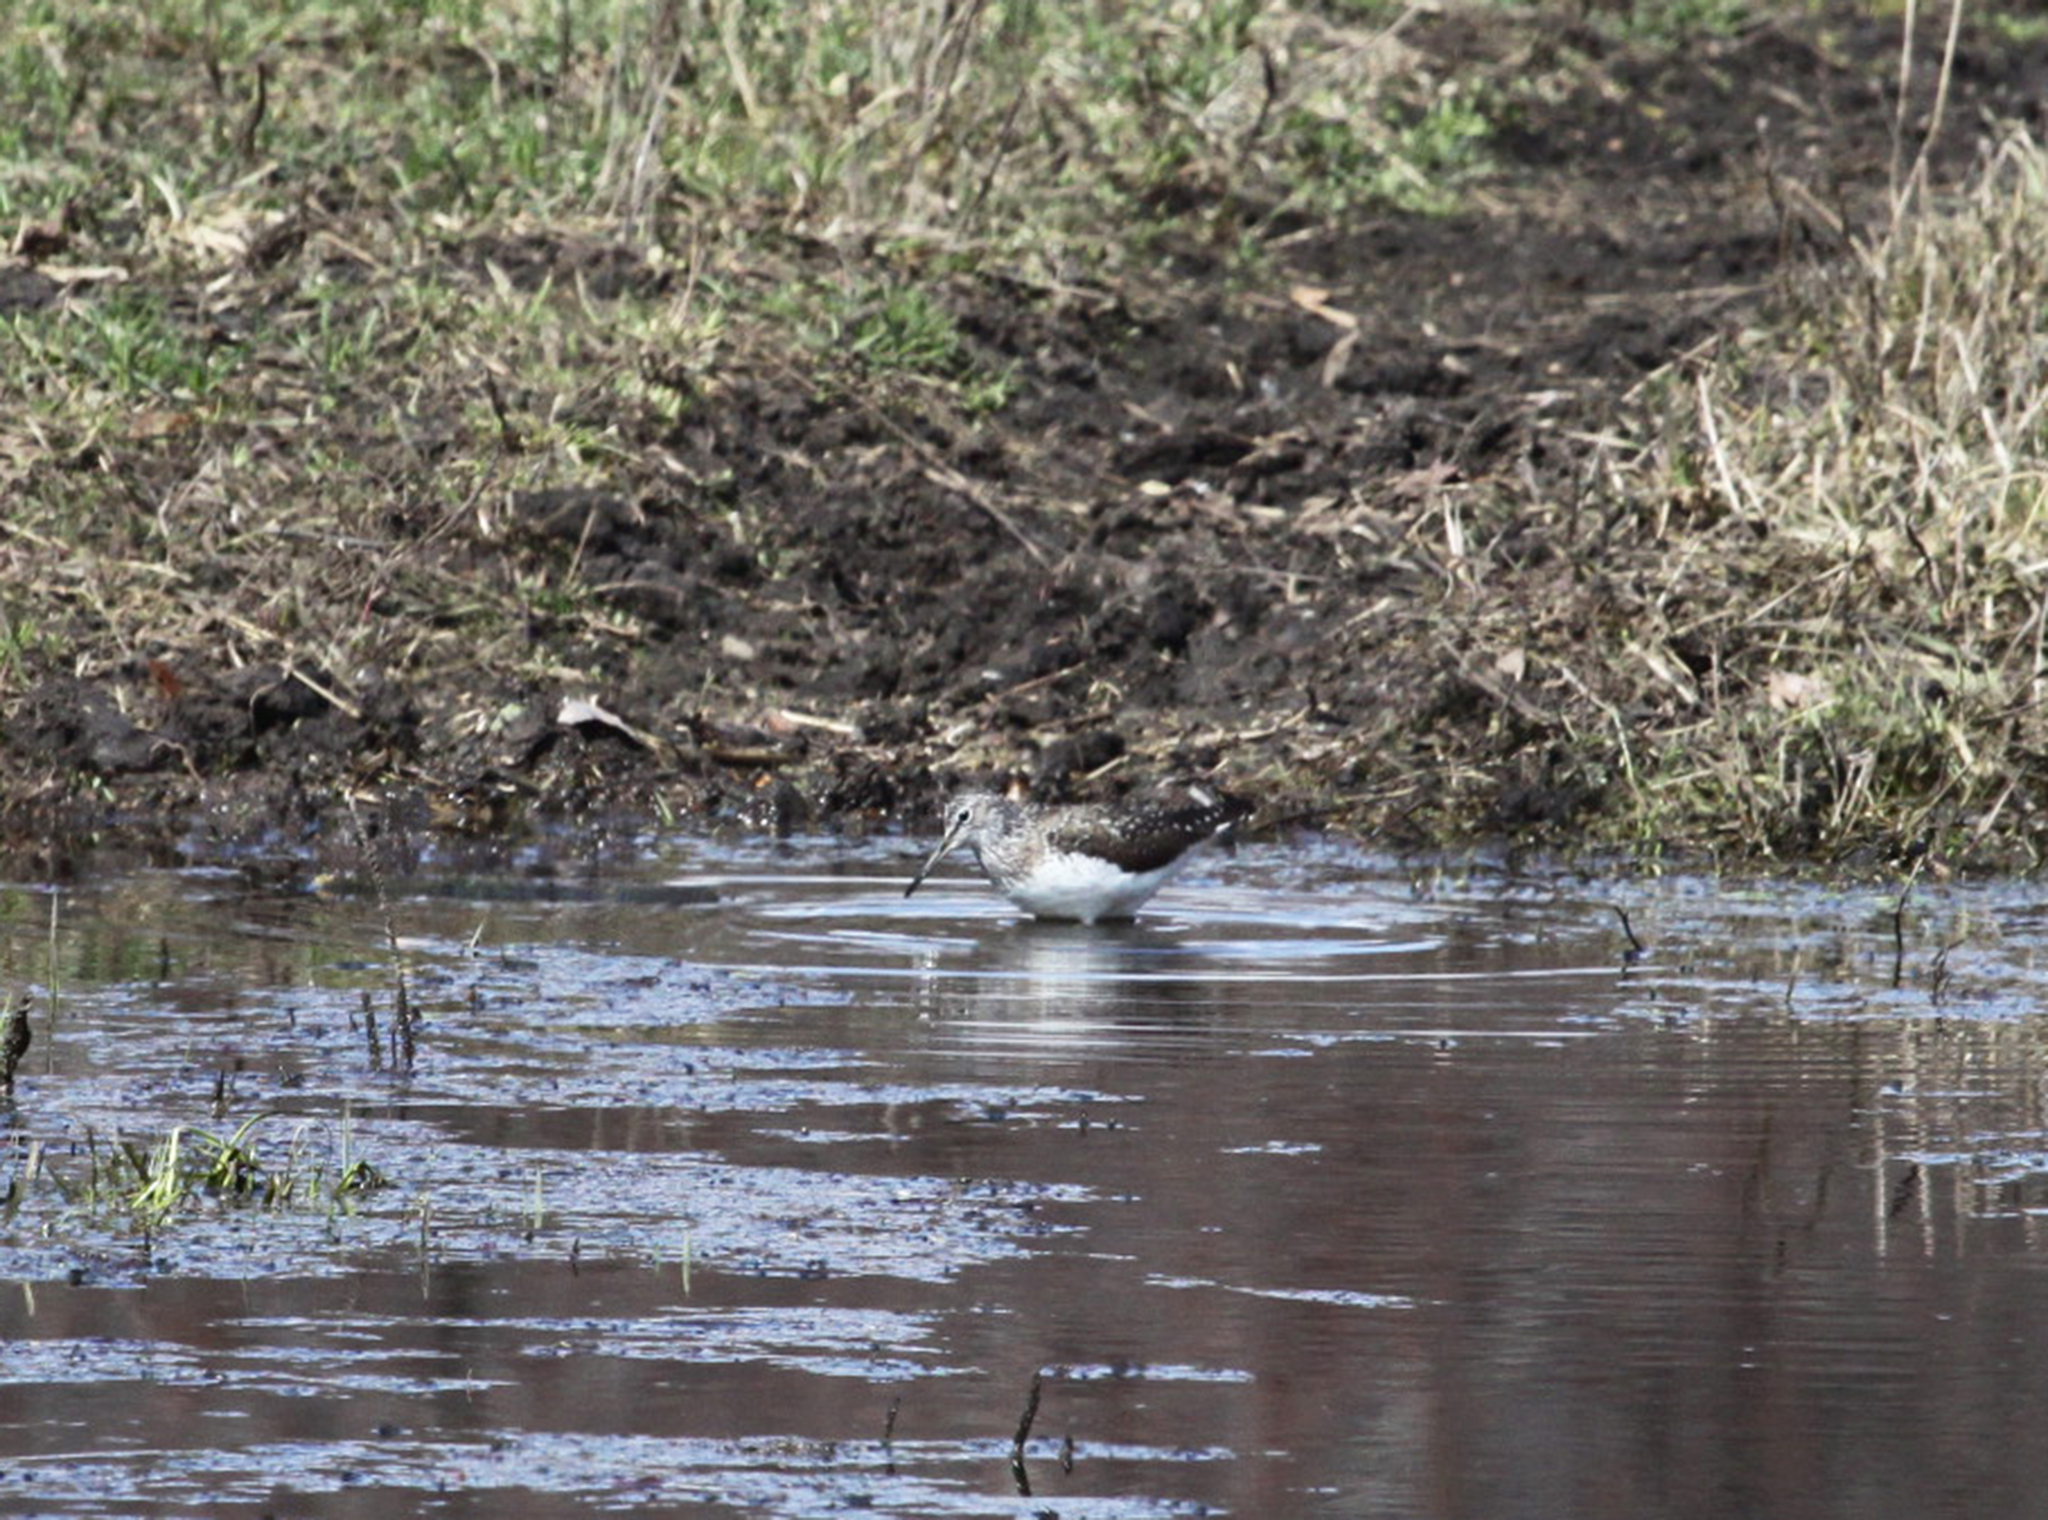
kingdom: Animalia
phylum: Chordata
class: Aves
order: Charadriiformes
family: Scolopacidae
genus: Tringa
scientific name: Tringa ochropus
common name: Green sandpiper
